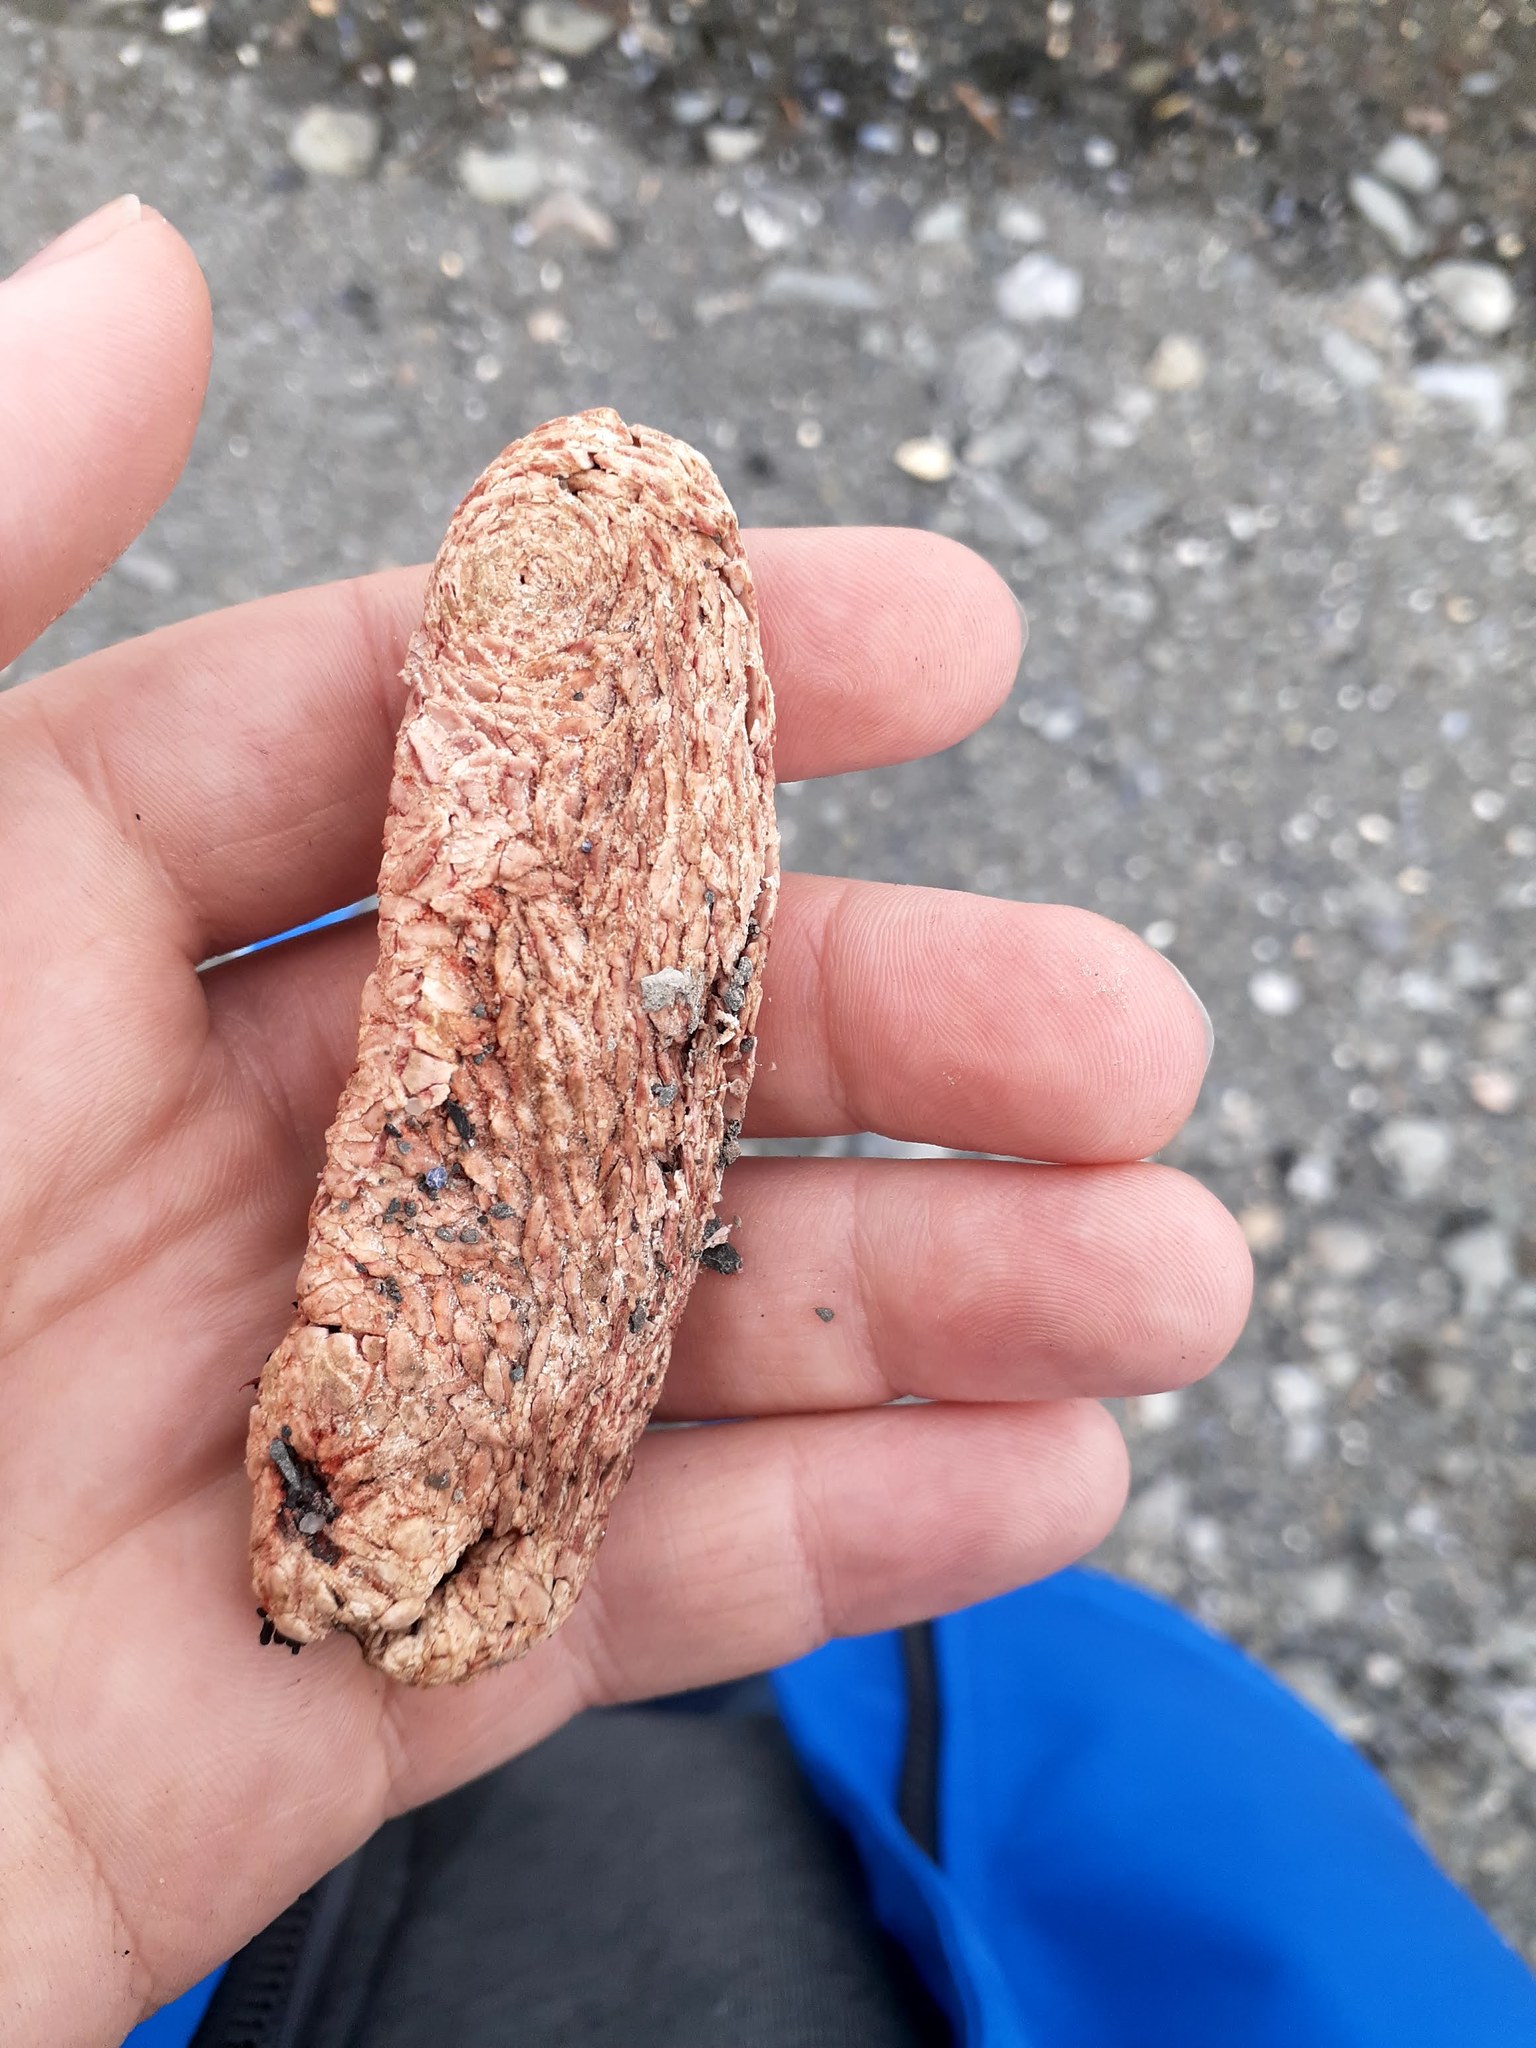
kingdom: Animalia
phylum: Echinodermata
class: Holothuroidea
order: Dendrochirotida
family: Psolidae
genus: Psolus
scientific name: Psolus fabricii
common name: Scarlet psolus
